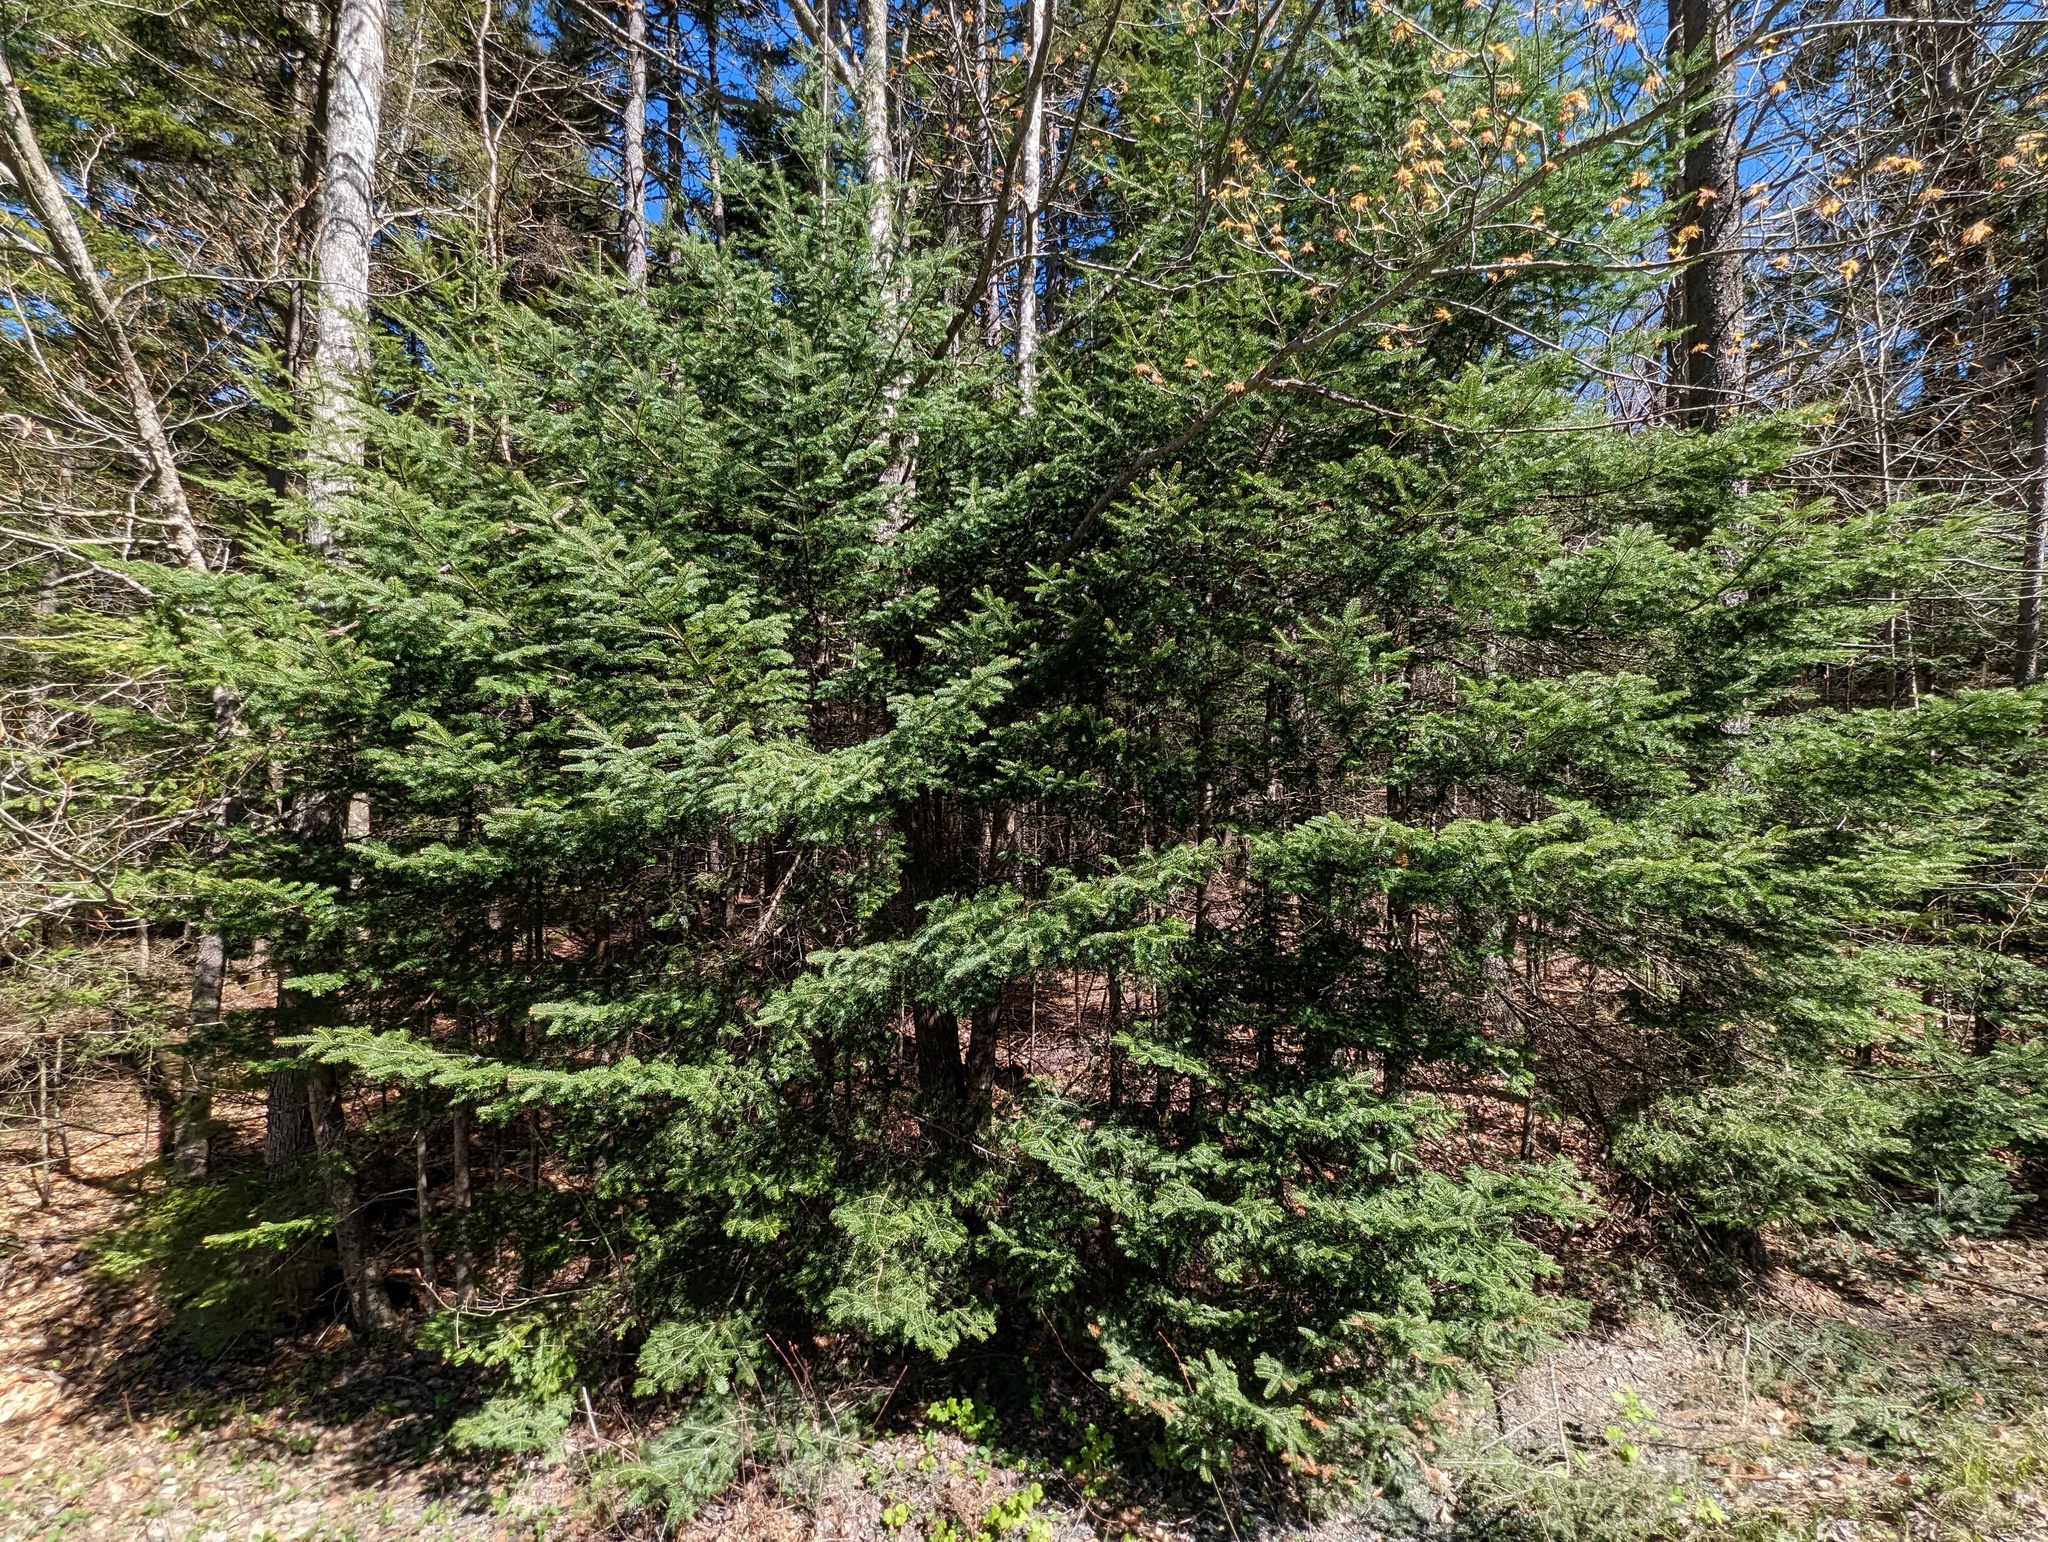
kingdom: Plantae
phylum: Tracheophyta
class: Pinopsida
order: Pinales
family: Pinaceae
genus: Abies
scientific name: Abies balsamea
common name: Balsam fir
